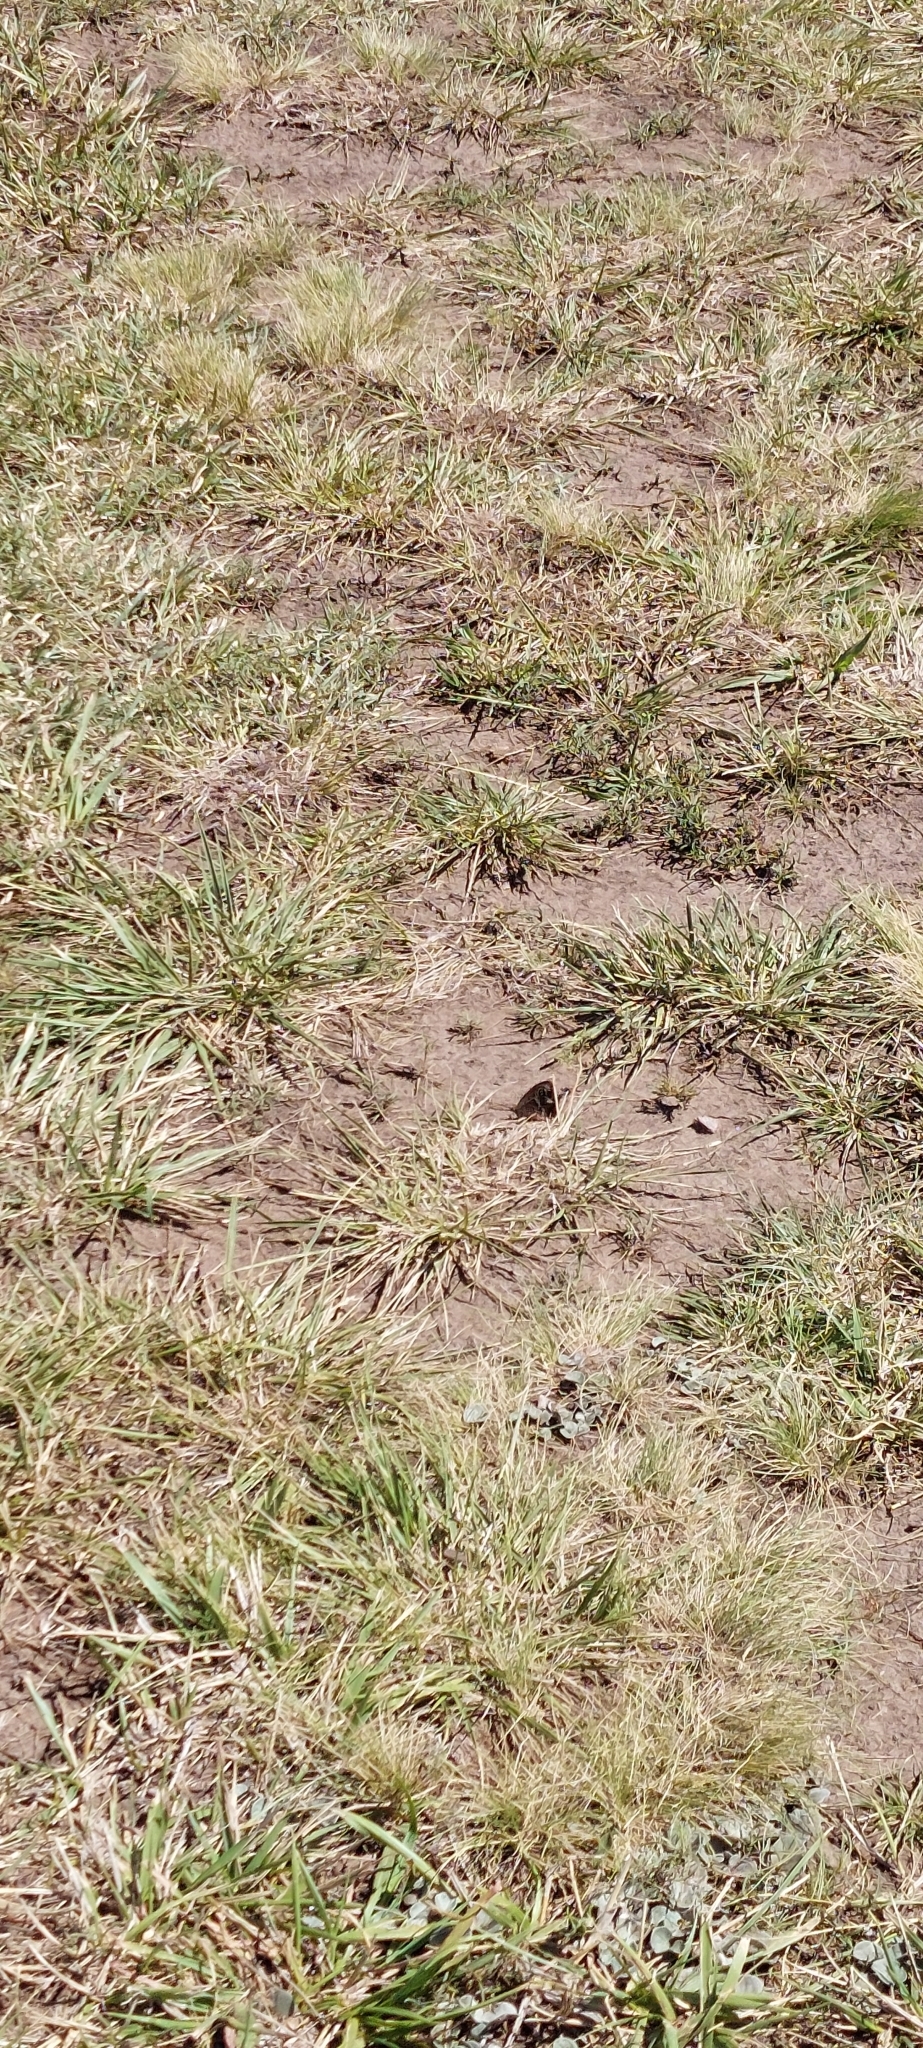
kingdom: Animalia
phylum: Arthropoda
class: Insecta
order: Lepidoptera
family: Nymphalidae
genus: Pampasatyrus
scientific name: Pampasatyrus quies
